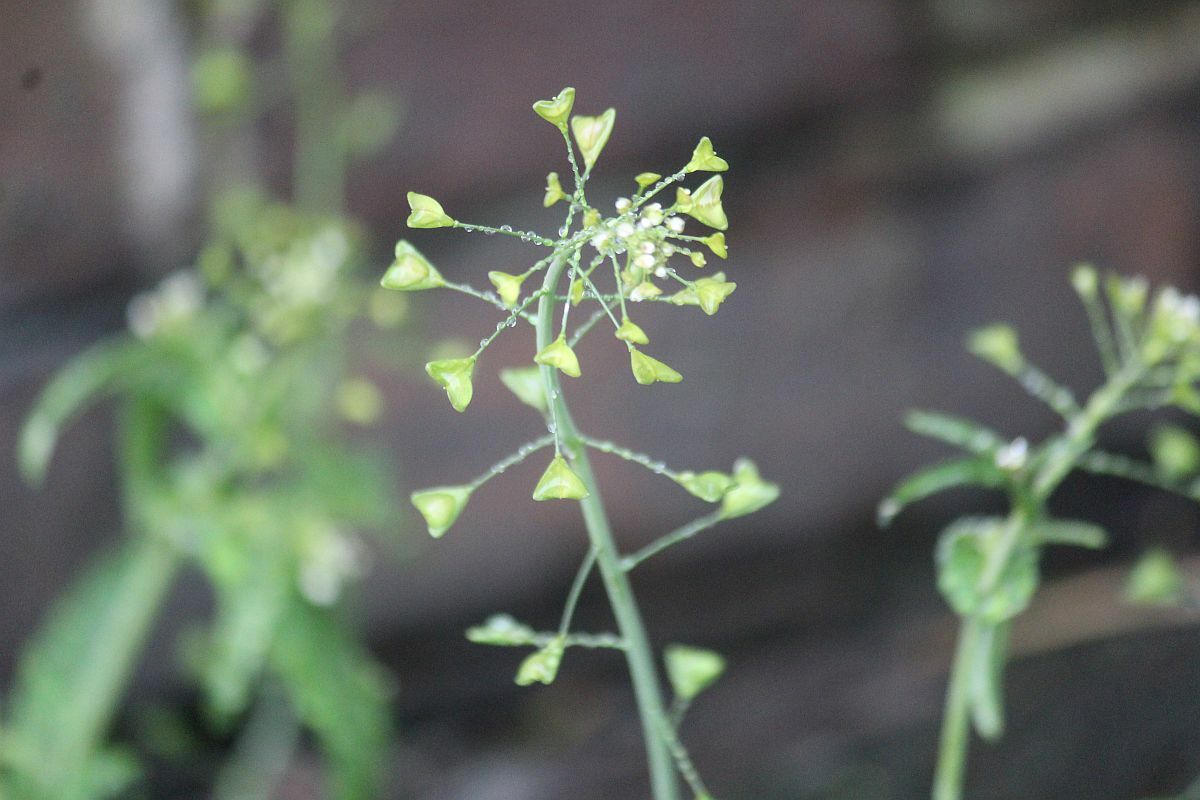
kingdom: Plantae
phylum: Tracheophyta
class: Magnoliopsida
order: Brassicales
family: Brassicaceae
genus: Capsella
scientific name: Capsella bursa-pastoris
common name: Shepherd's purse
